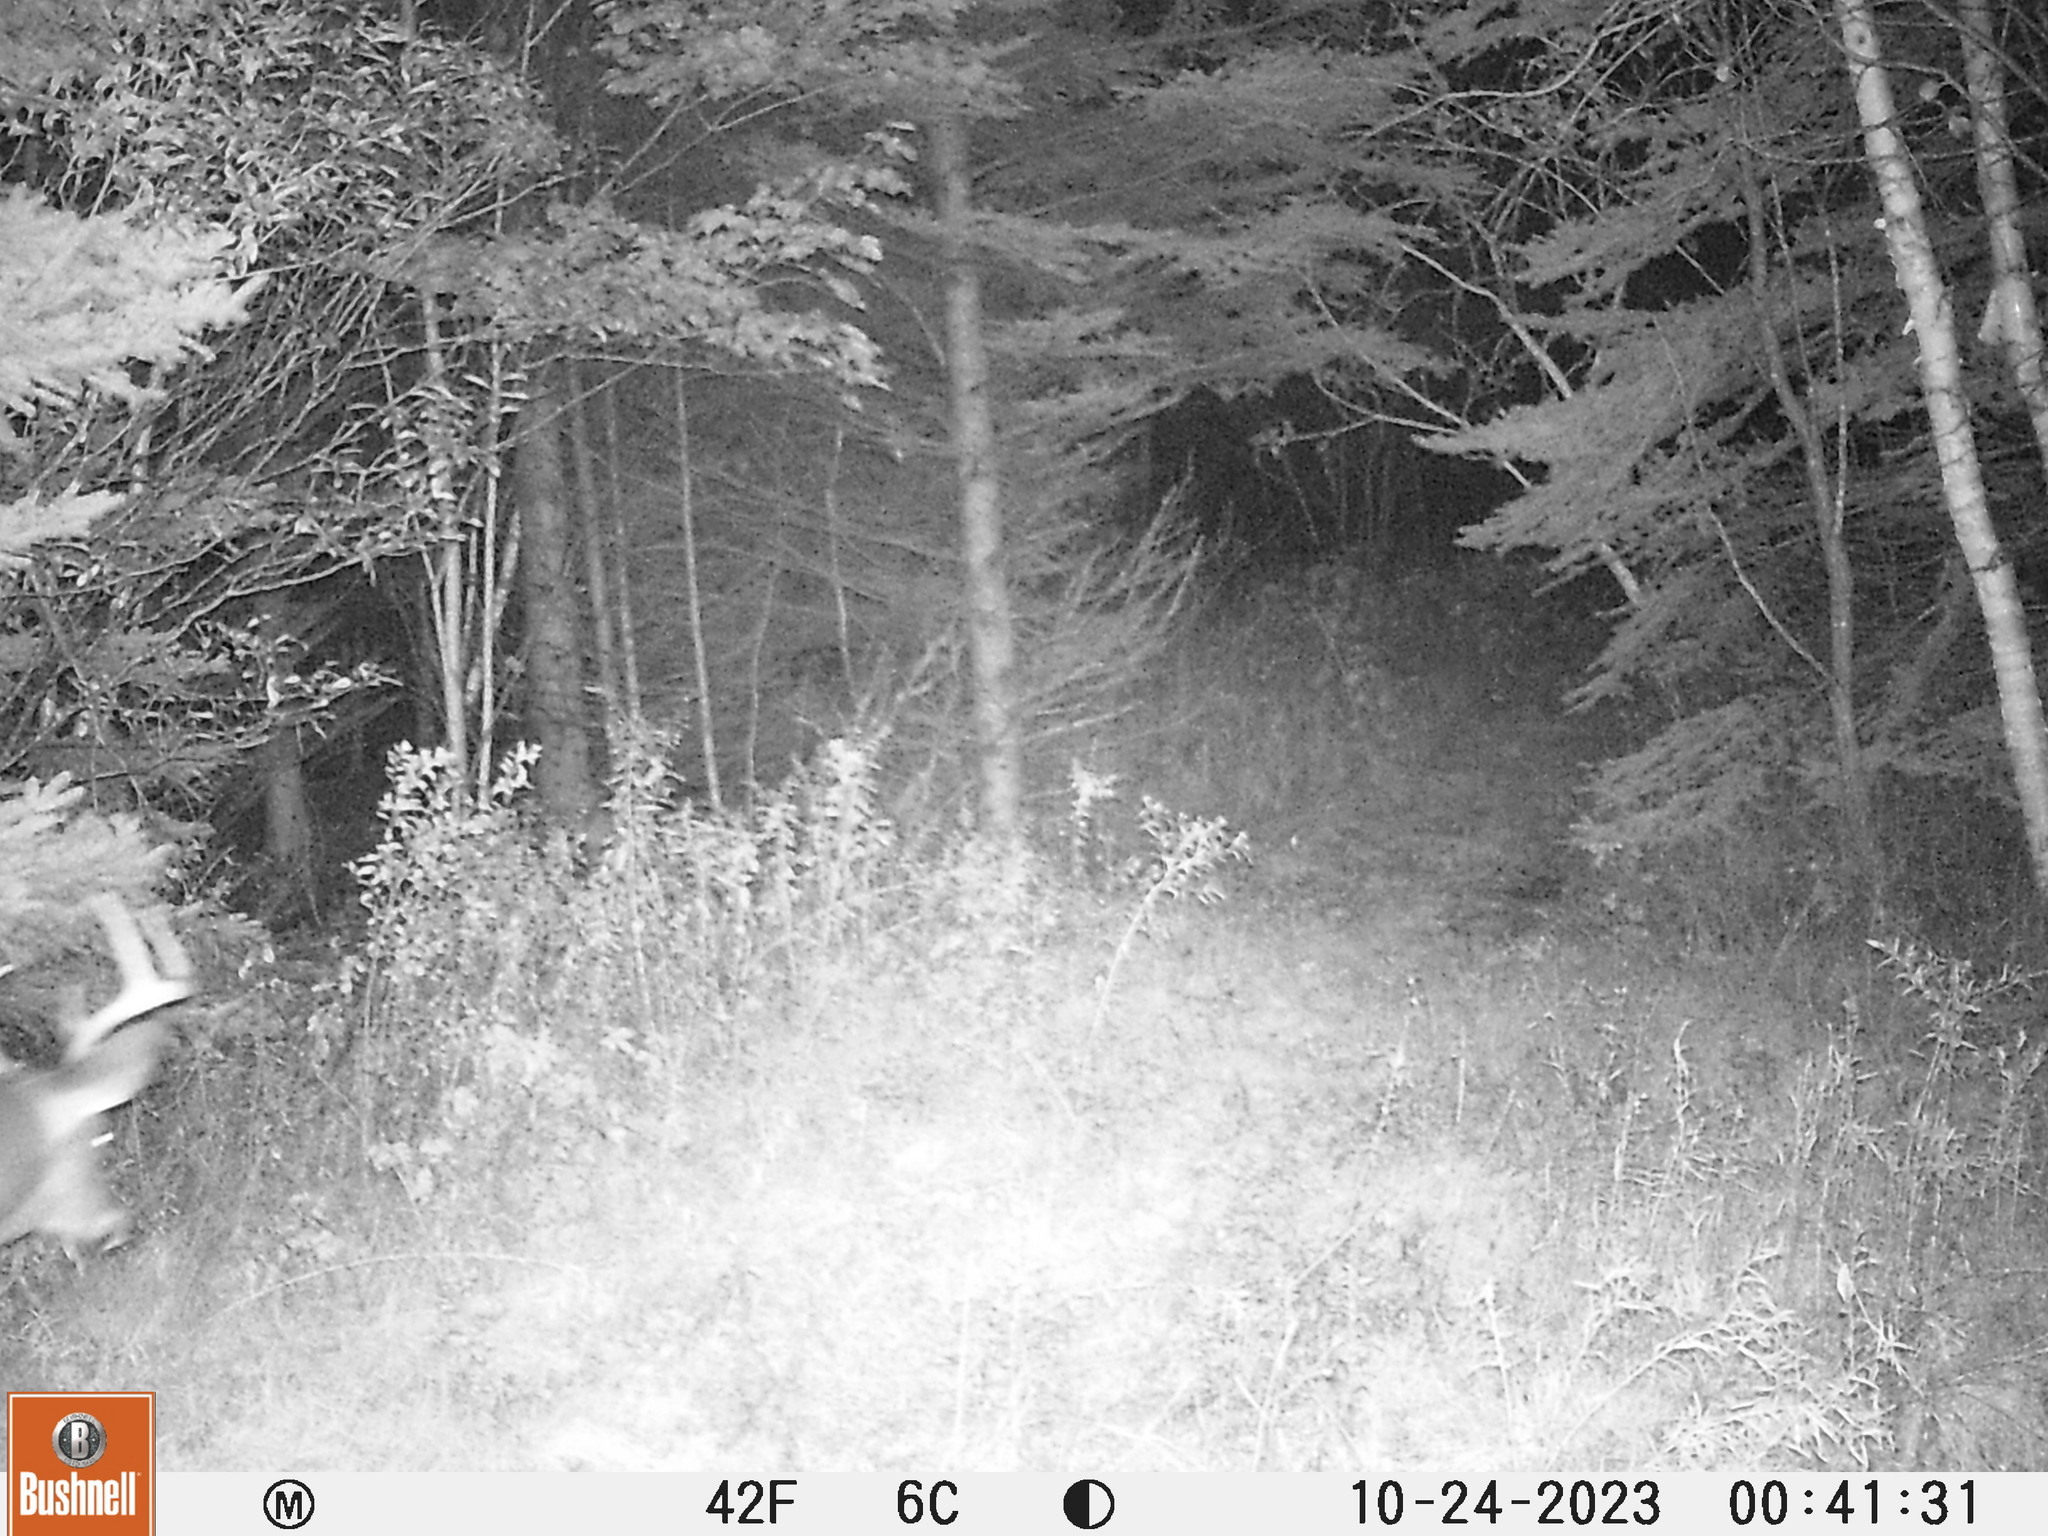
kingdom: Animalia
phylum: Chordata
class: Mammalia
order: Artiodactyla
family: Cervidae
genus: Odocoileus
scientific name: Odocoileus virginianus
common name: White-tailed deer
